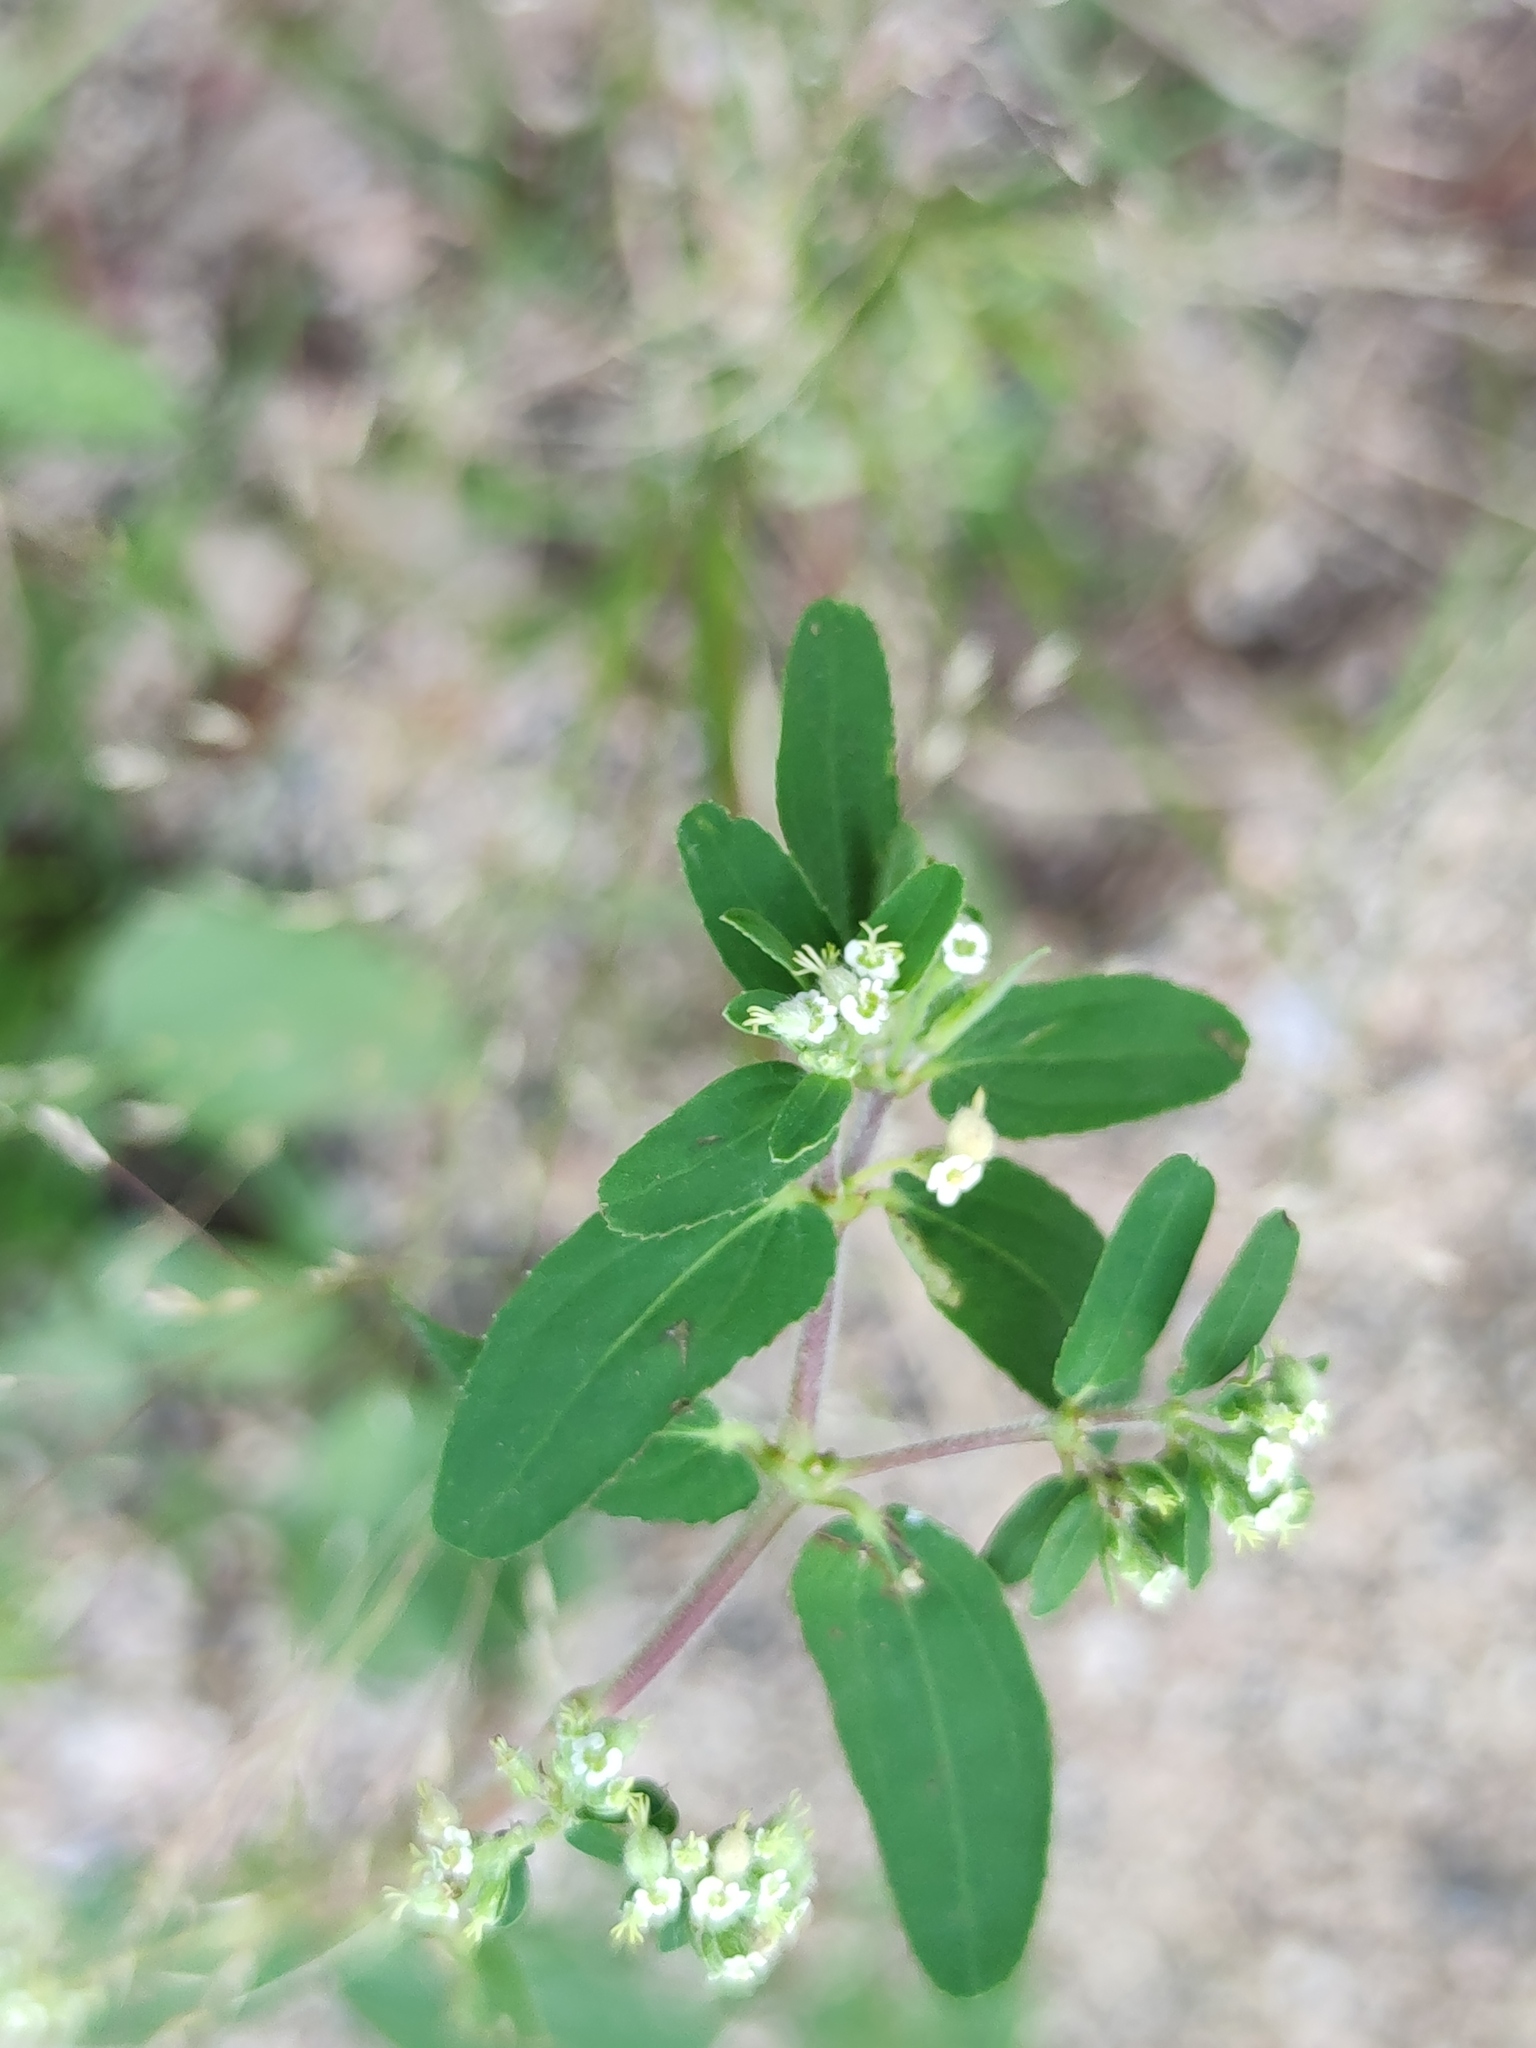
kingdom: Plantae
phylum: Tracheophyta
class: Magnoliopsida
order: Malpighiales
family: Euphorbiaceae
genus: Euphorbia
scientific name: Euphorbia lasiocarpa
